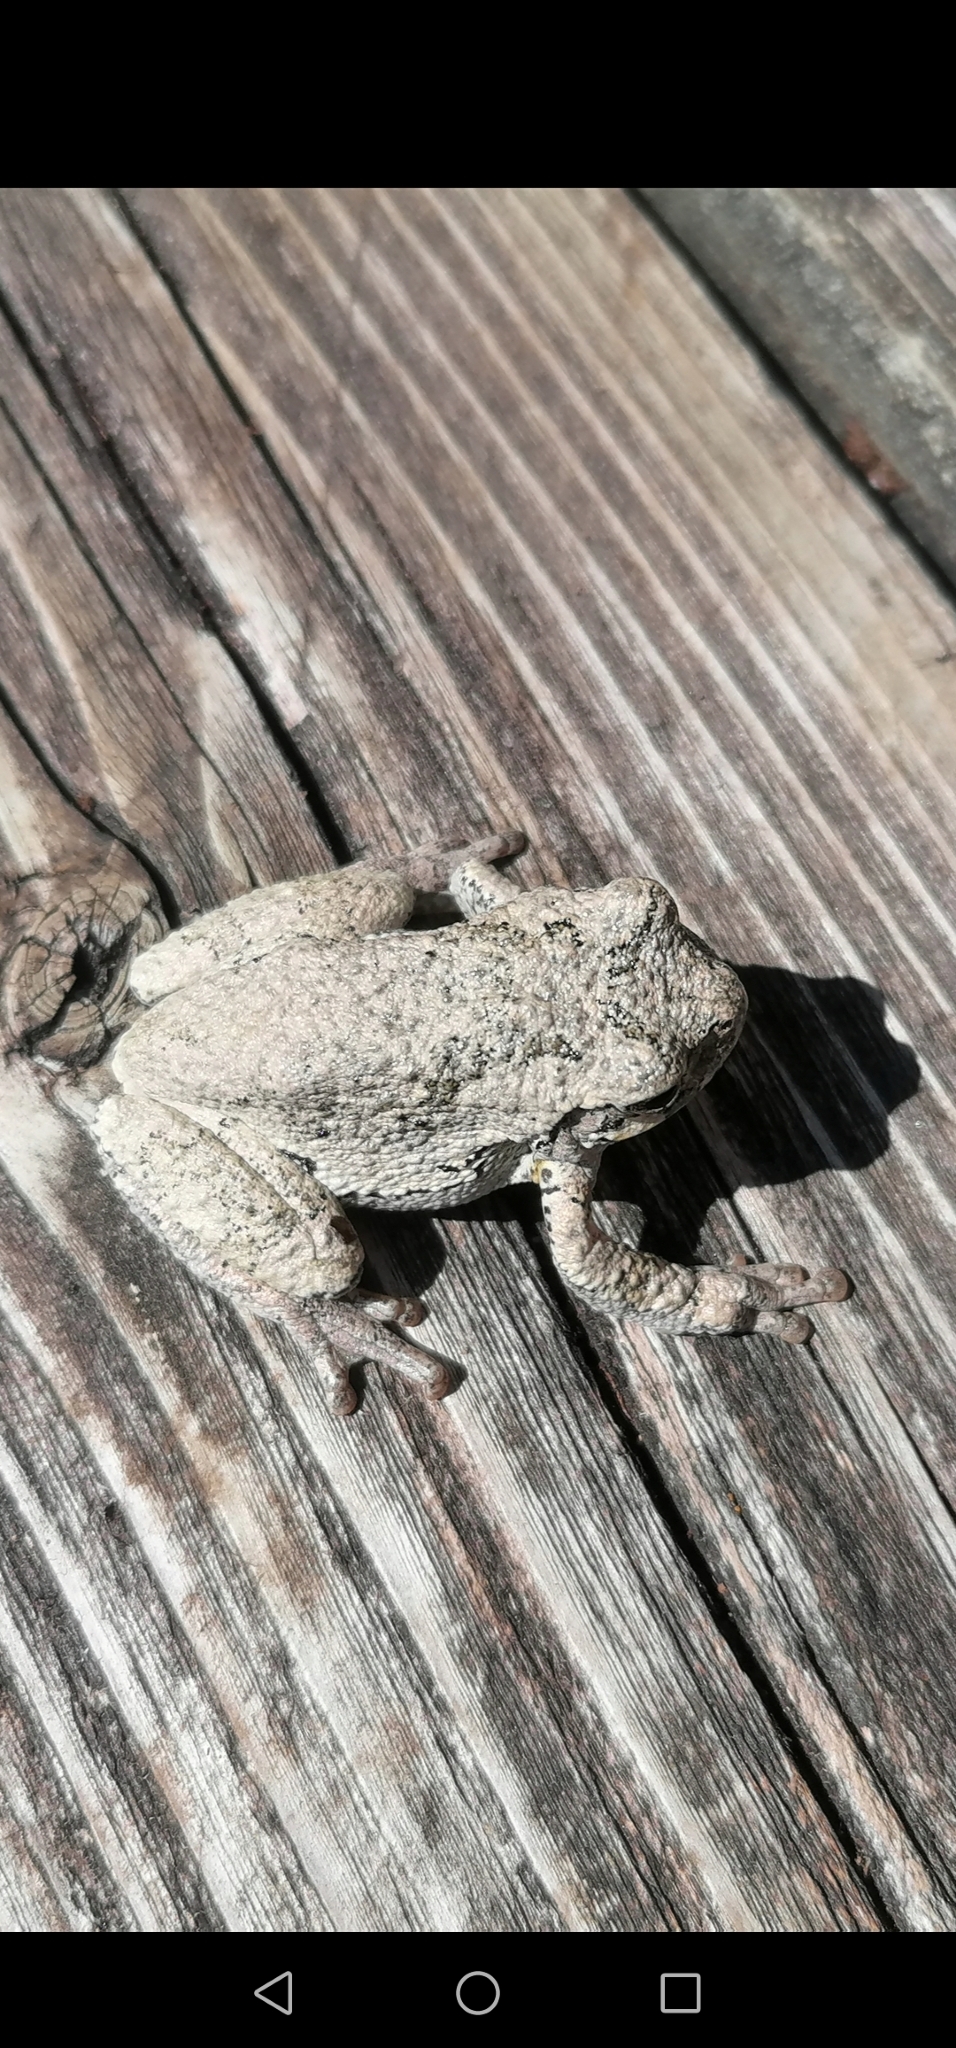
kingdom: Animalia
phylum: Chordata
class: Amphibia
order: Anura
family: Hylidae
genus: Dryophytes
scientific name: Dryophytes versicolor
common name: Gray treefrog
